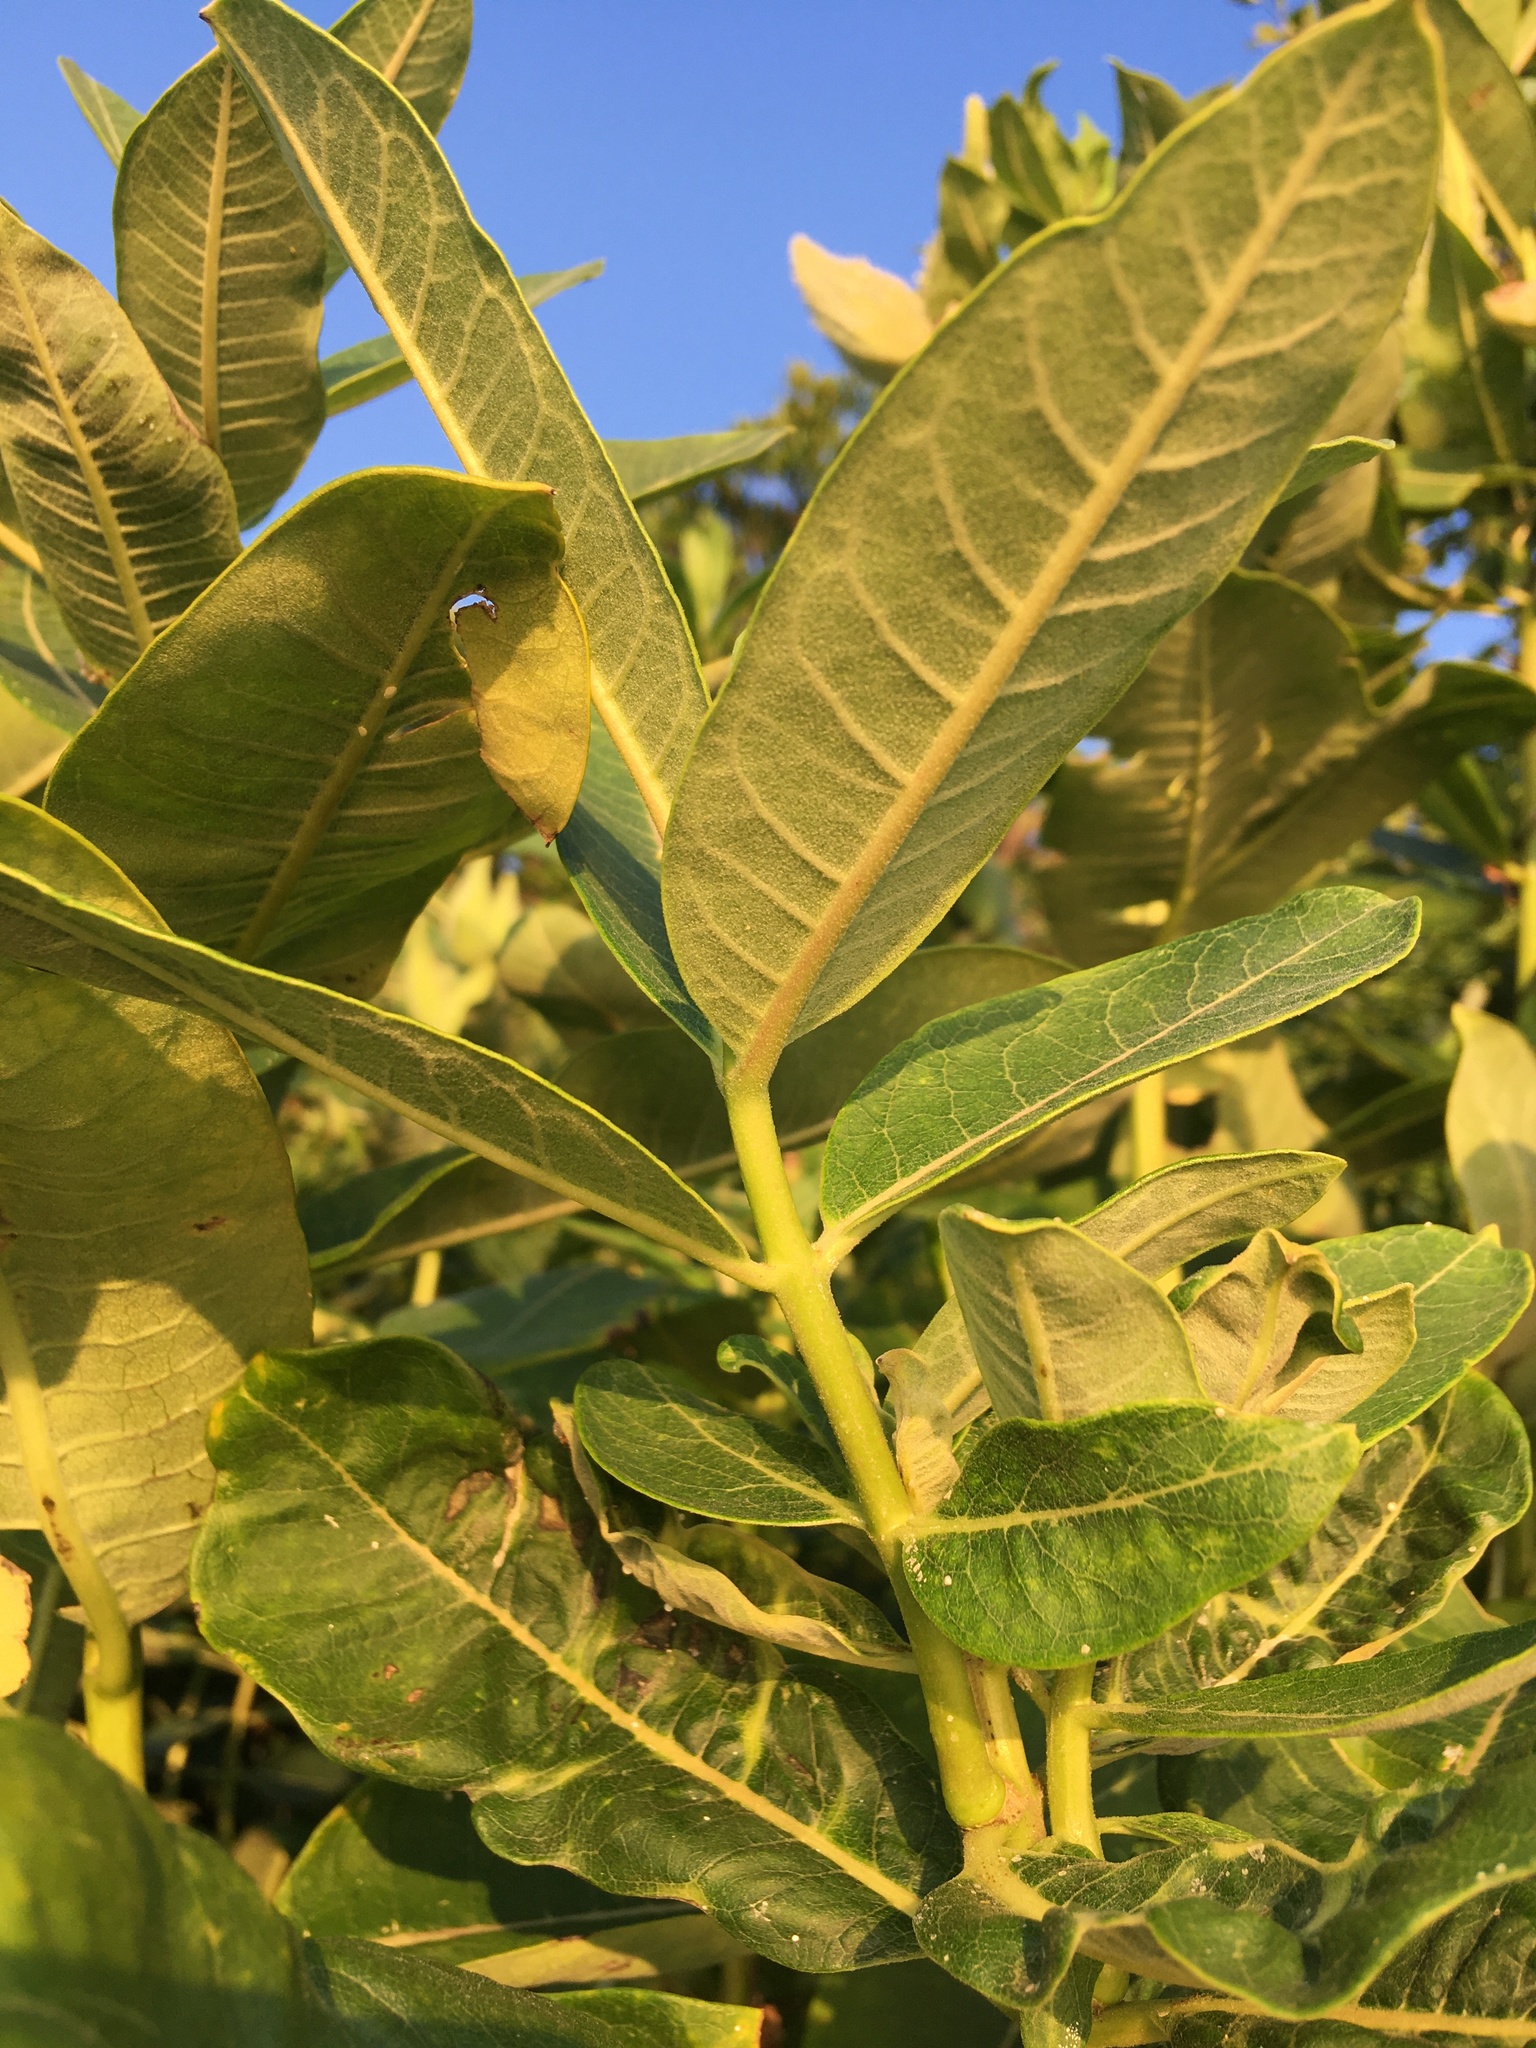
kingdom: Plantae
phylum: Tracheophyta
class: Magnoliopsida
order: Gentianales
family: Apocynaceae
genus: Asclepias
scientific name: Asclepias syriaca
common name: Common milkweed
